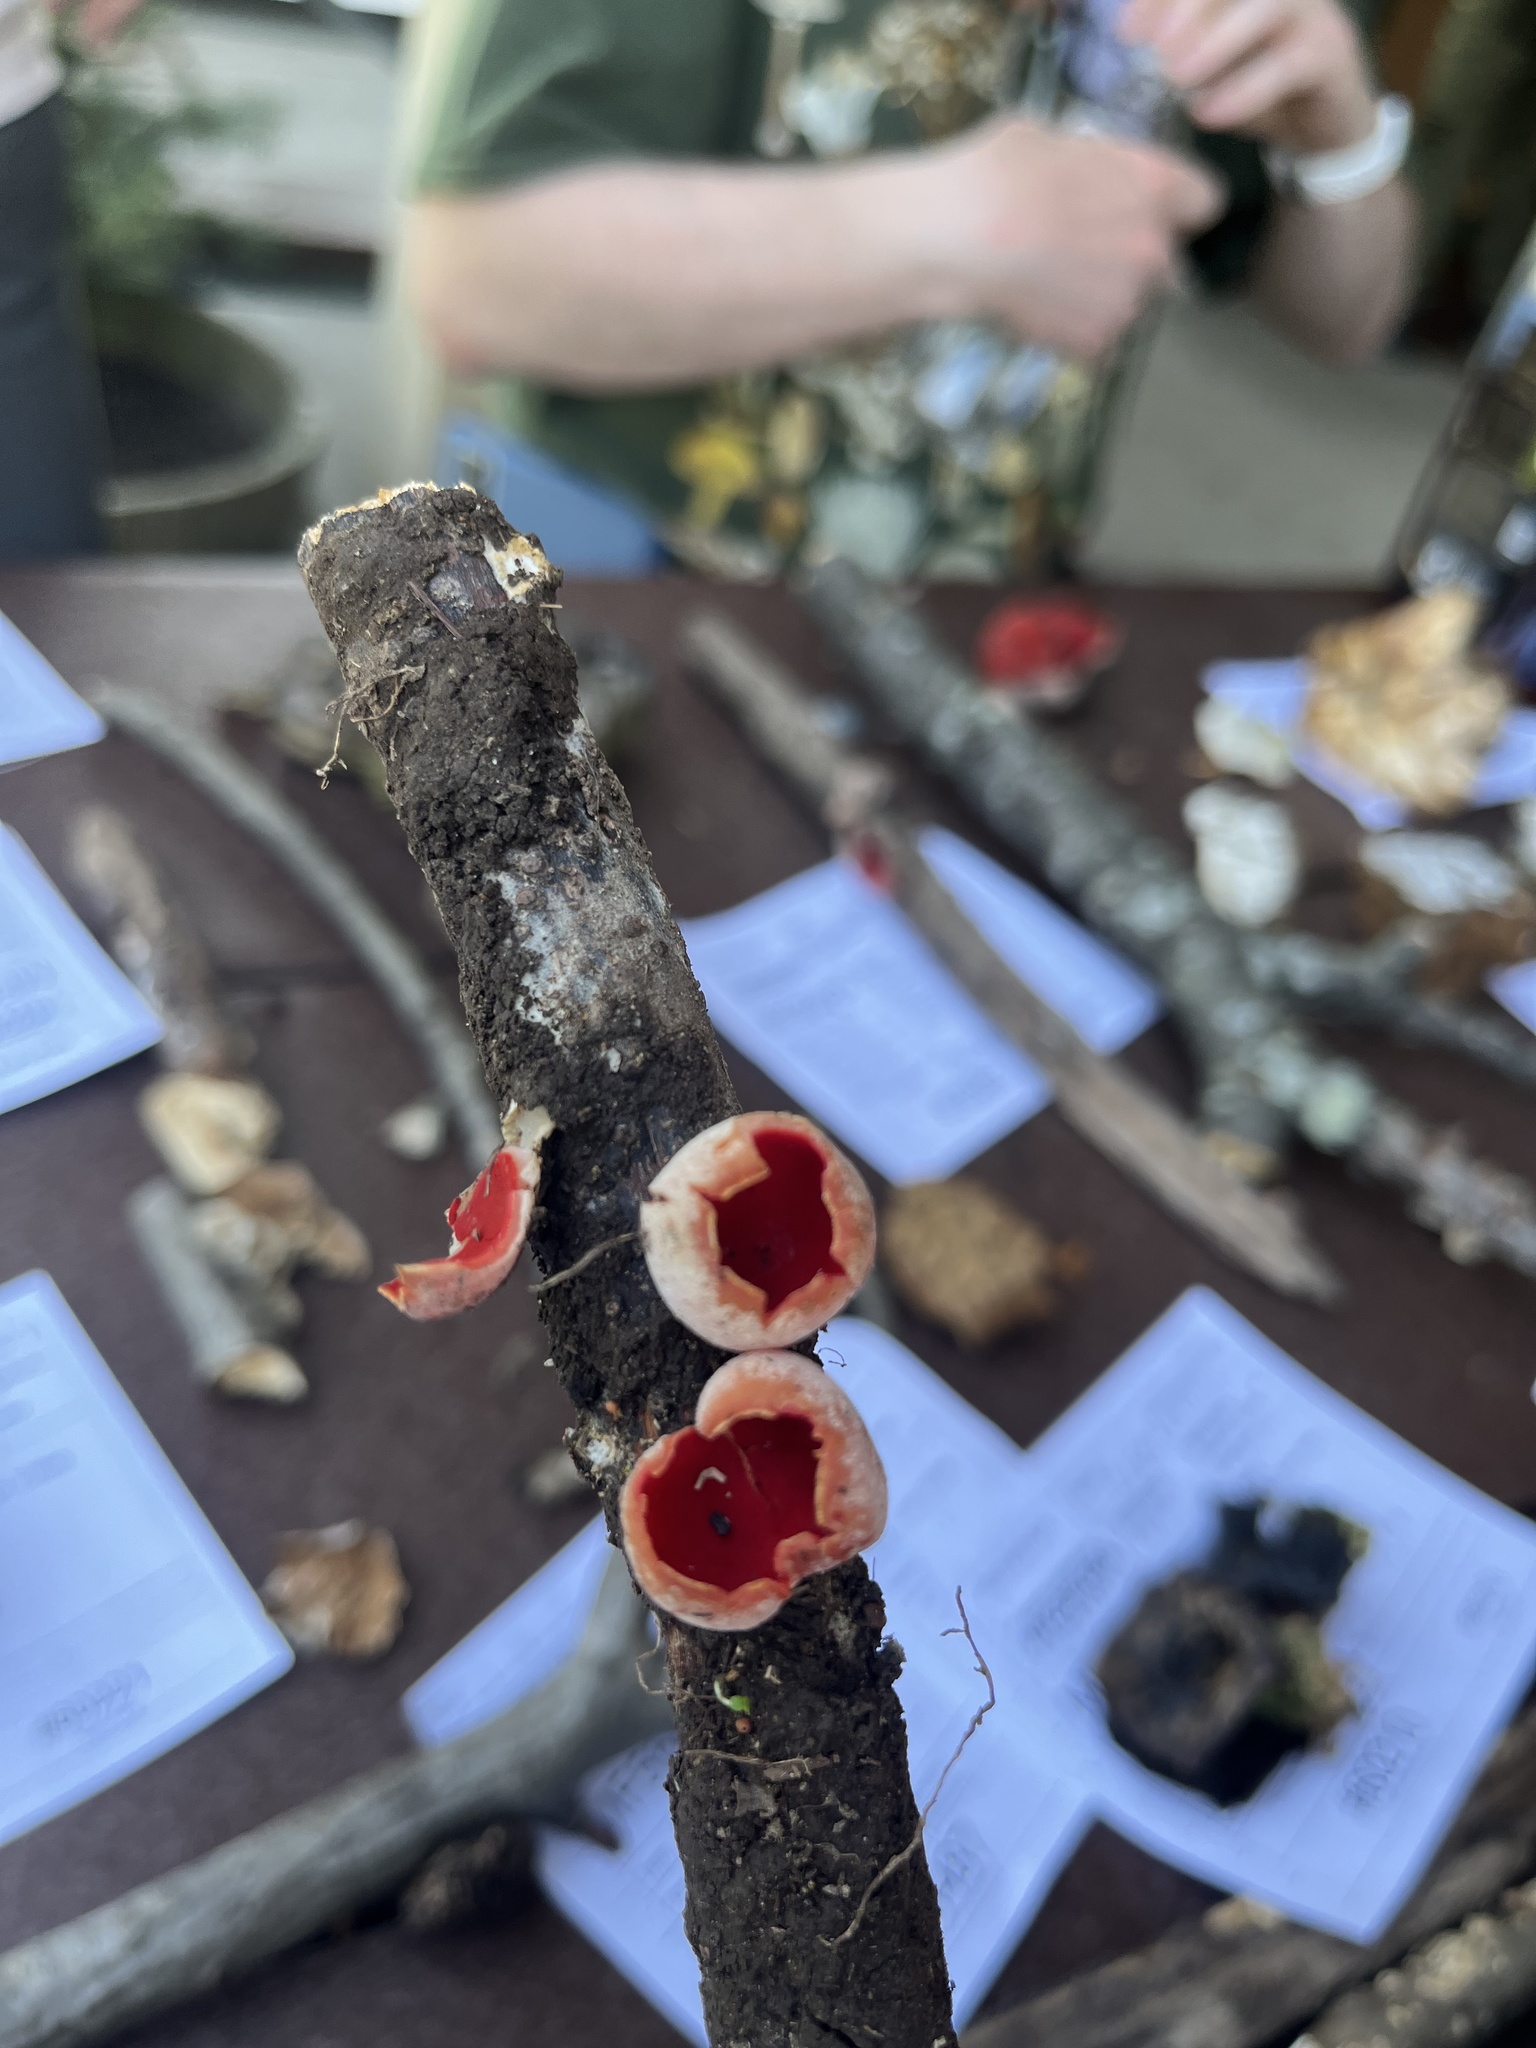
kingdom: Fungi
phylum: Ascomycota
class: Pezizomycetes
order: Pezizales
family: Sarcoscyphaceae
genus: Sarcoscypha
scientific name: Sarcoscypha austriaca
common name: Scarlet elfcup
